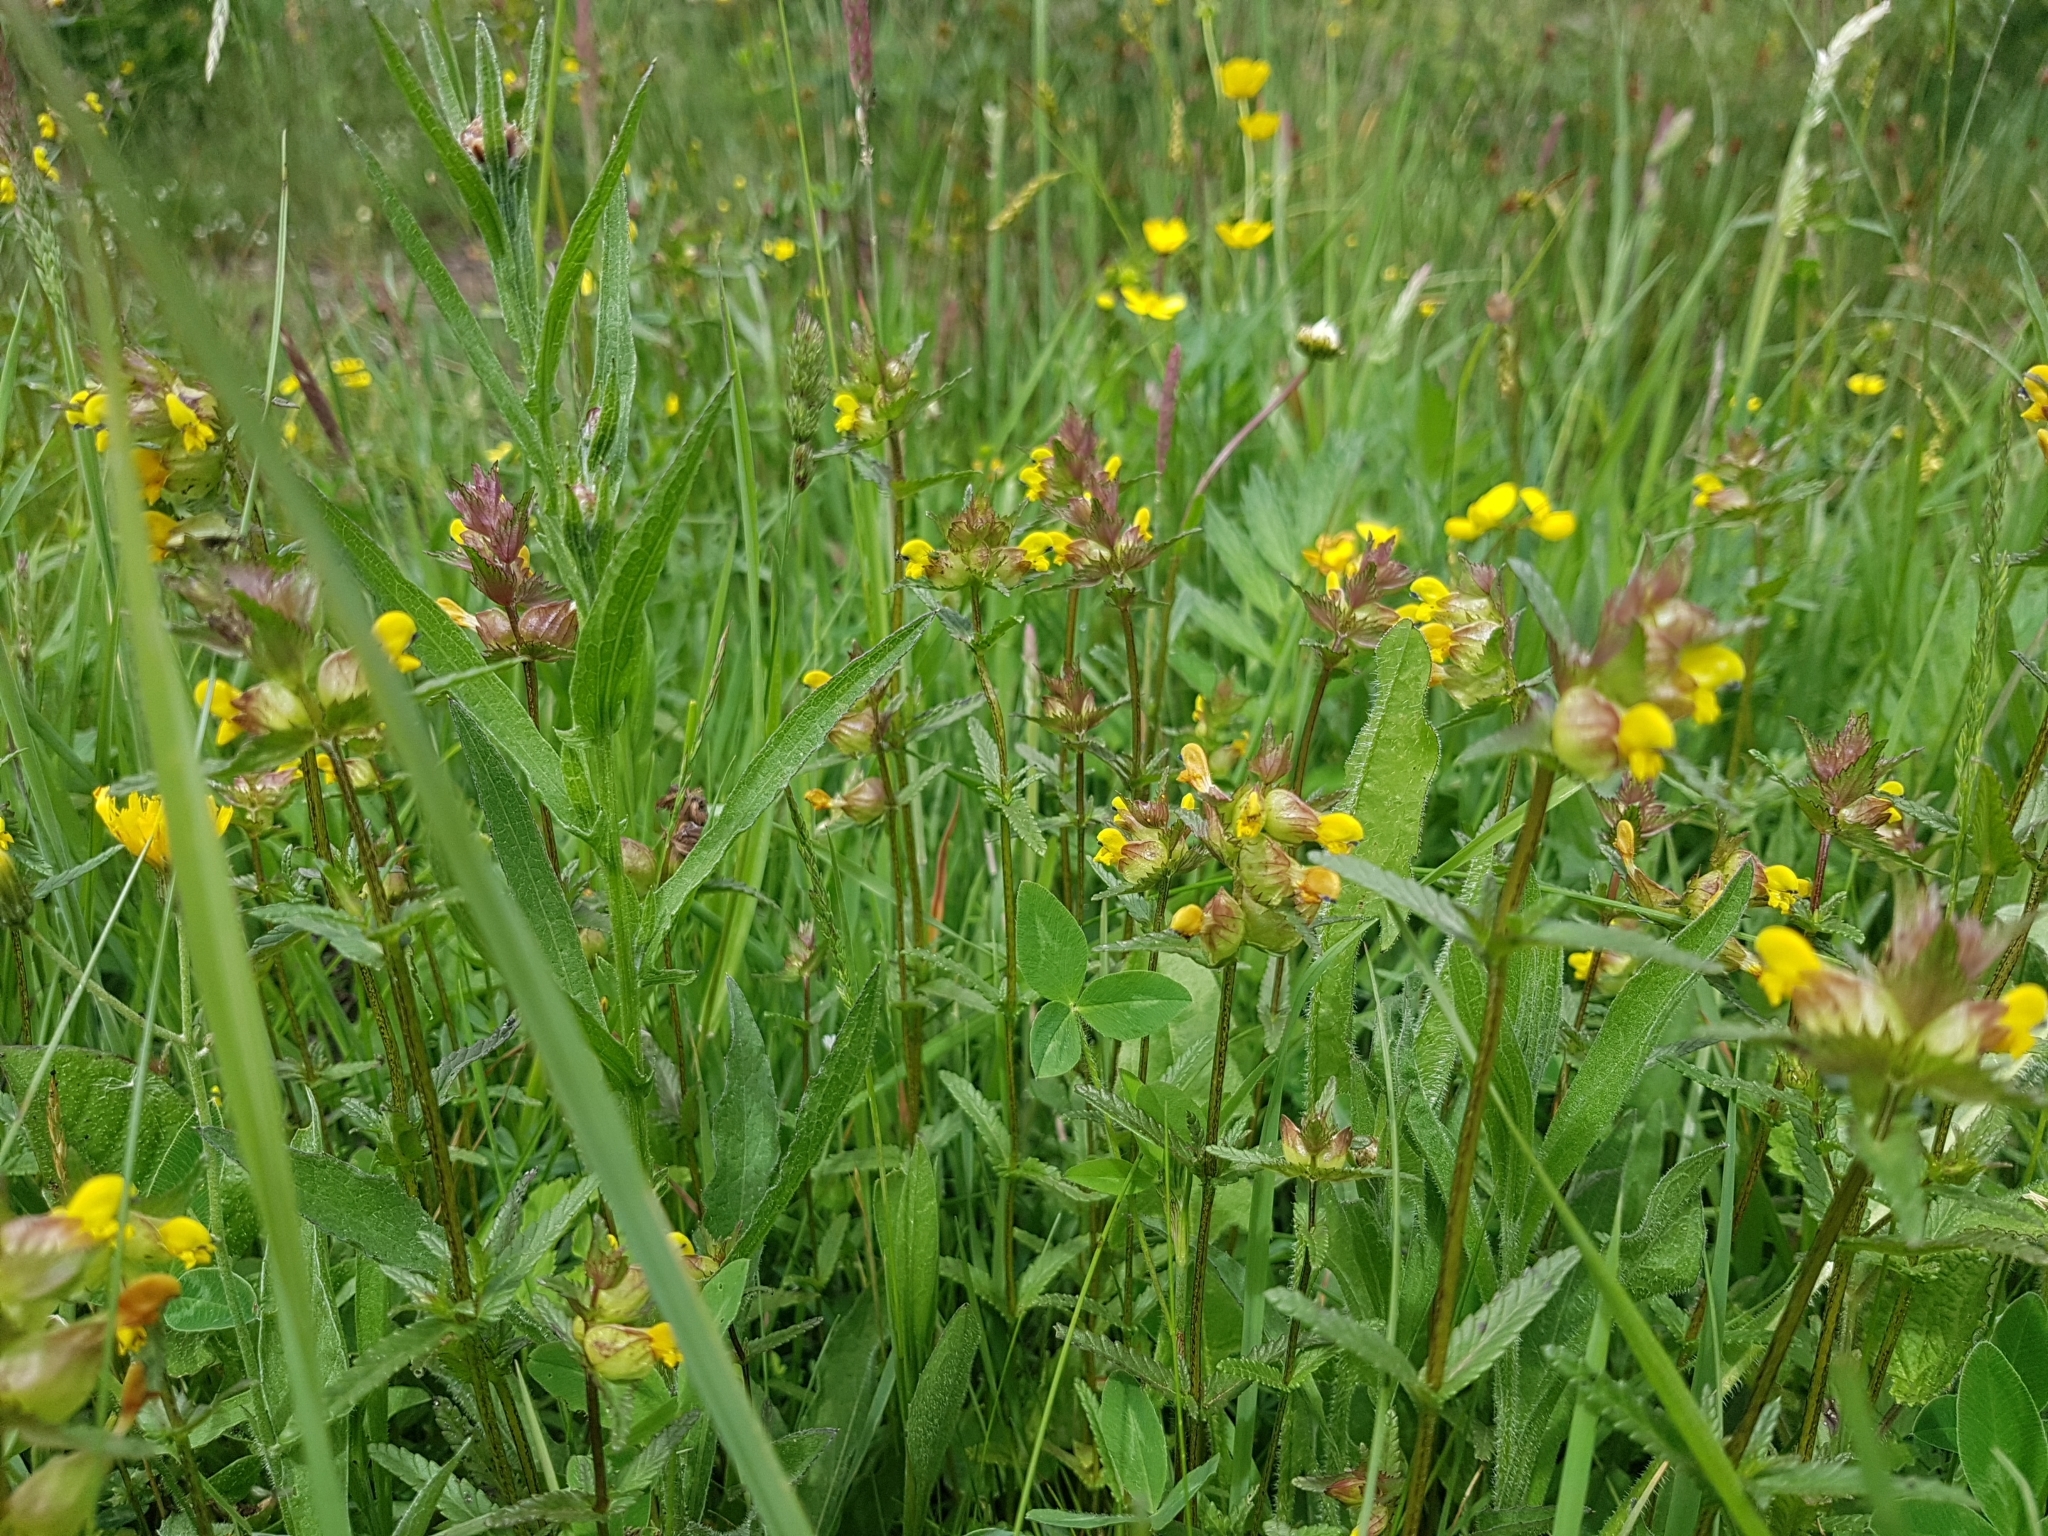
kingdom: Plantae
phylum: Tracheophyta
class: Magnoliopsida
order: Lamiales
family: Orobanchaceae
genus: Rhinanthus
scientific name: Rhinanthus minor
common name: Yellow-rattle
